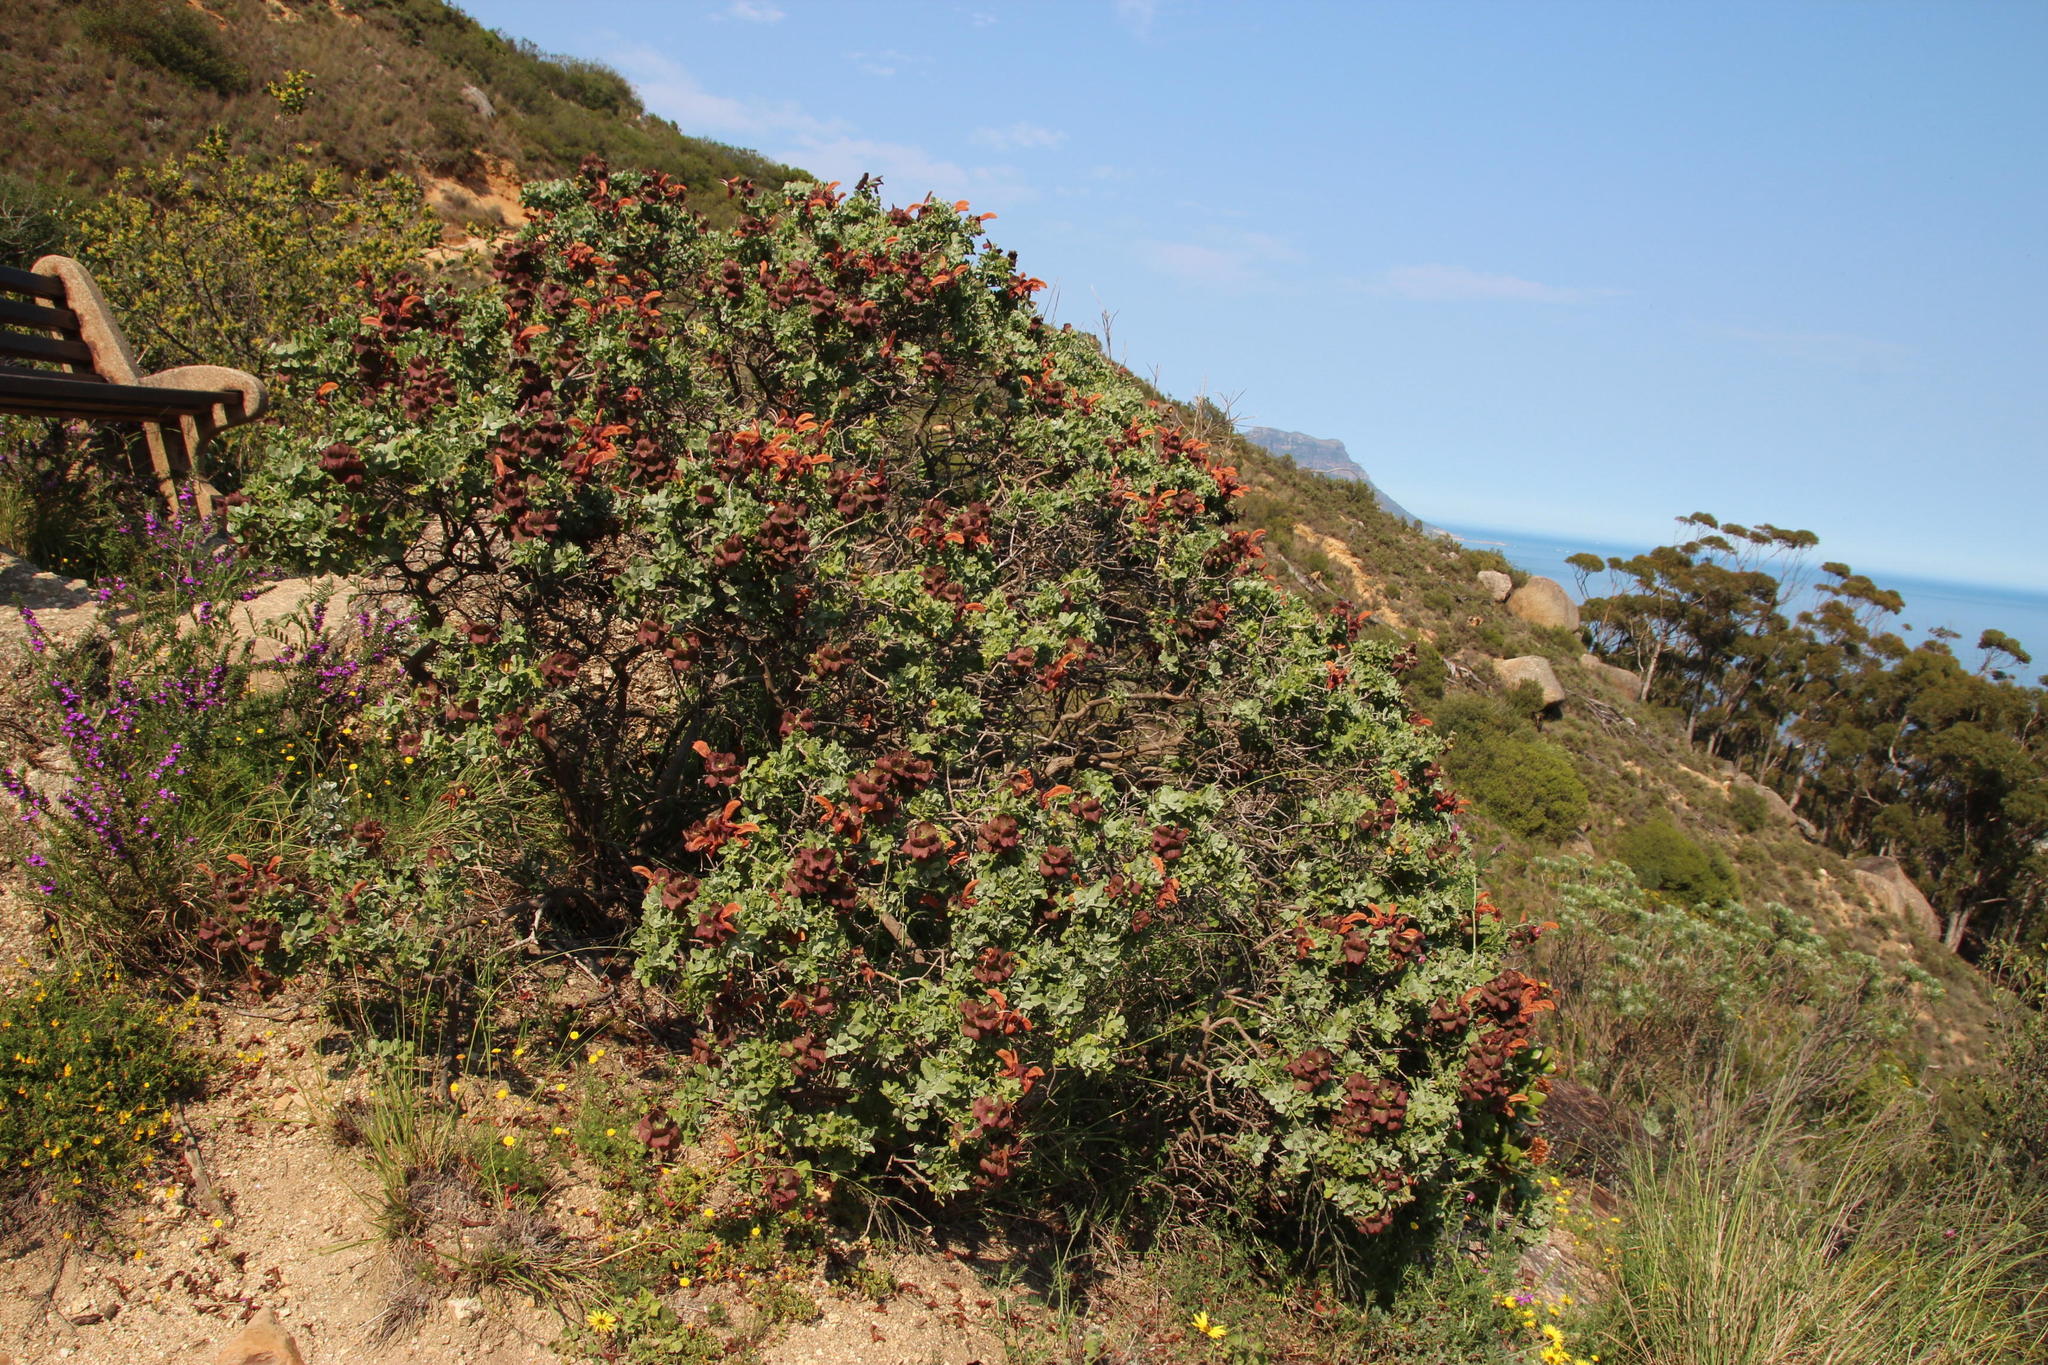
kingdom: Plantae
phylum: Tracheophyta
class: Magnoliopsida
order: Lamiales
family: Lamiaceae
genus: Salvia
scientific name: Salvia aurea
